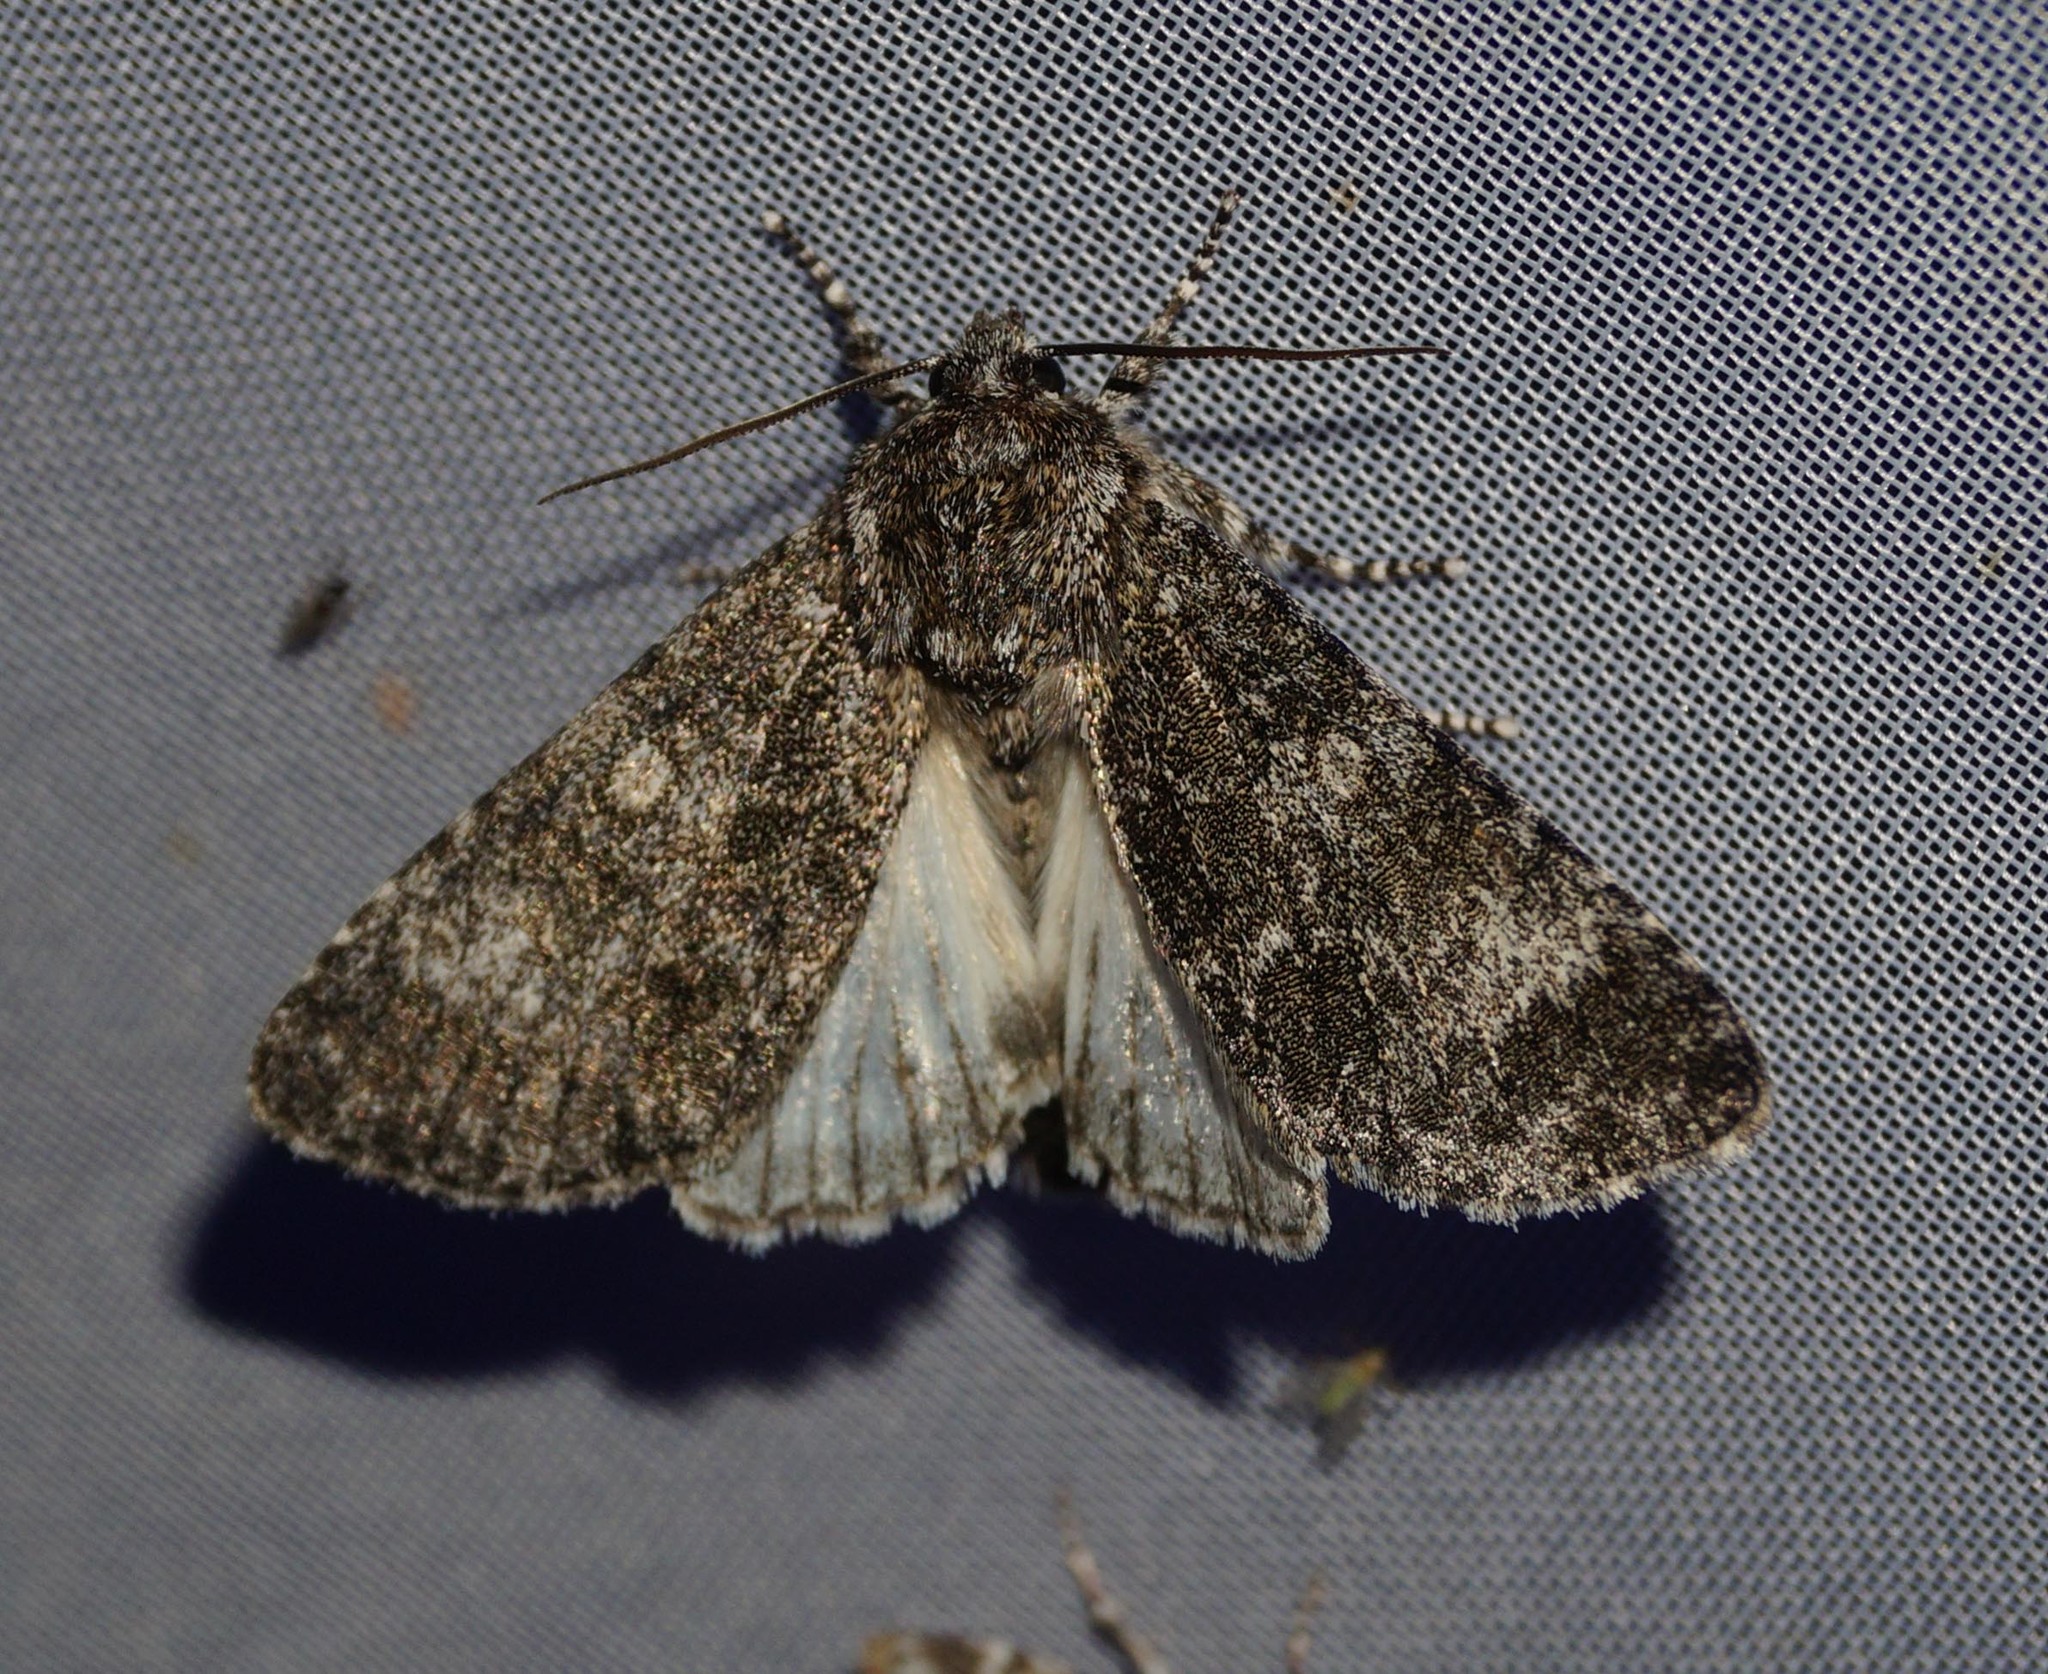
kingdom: Animalia
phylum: Arthropoda
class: Insecta
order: Lepidoptera
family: Noctuidae
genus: Acronicta
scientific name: Acronicta megacephala
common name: Poplar grey
